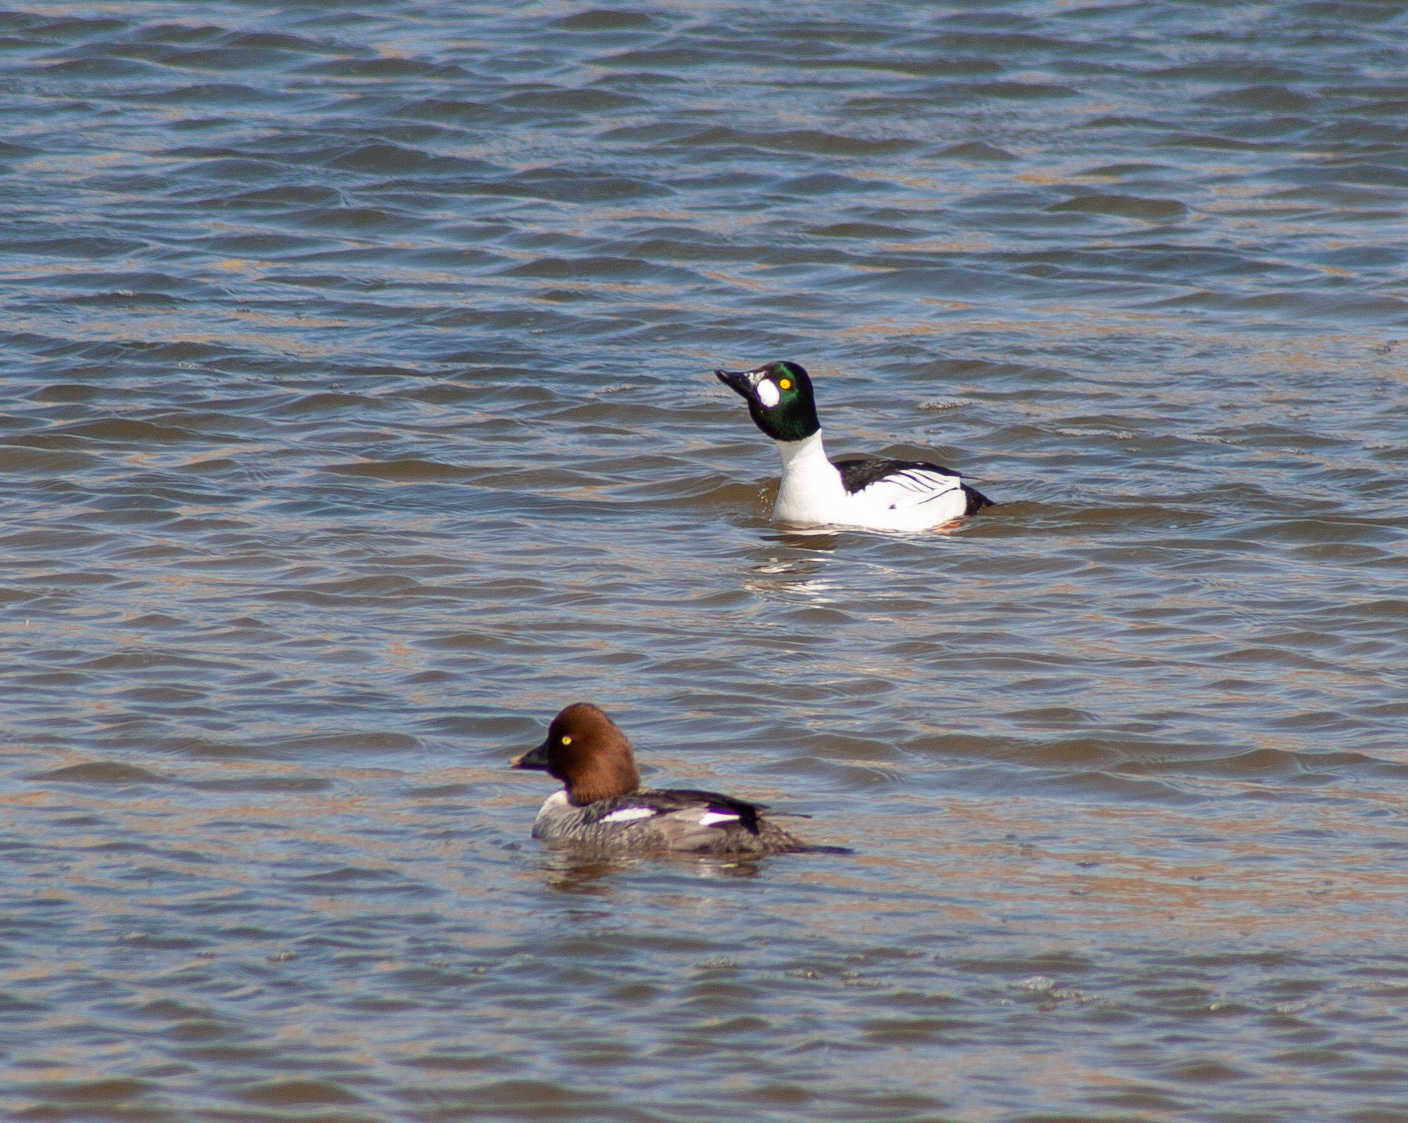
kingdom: Animalia
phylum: Chordata
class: Aves
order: Anseriformes
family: Anatidae
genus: Bucephala
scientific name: Bucephala clangula
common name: Common goldeneye
